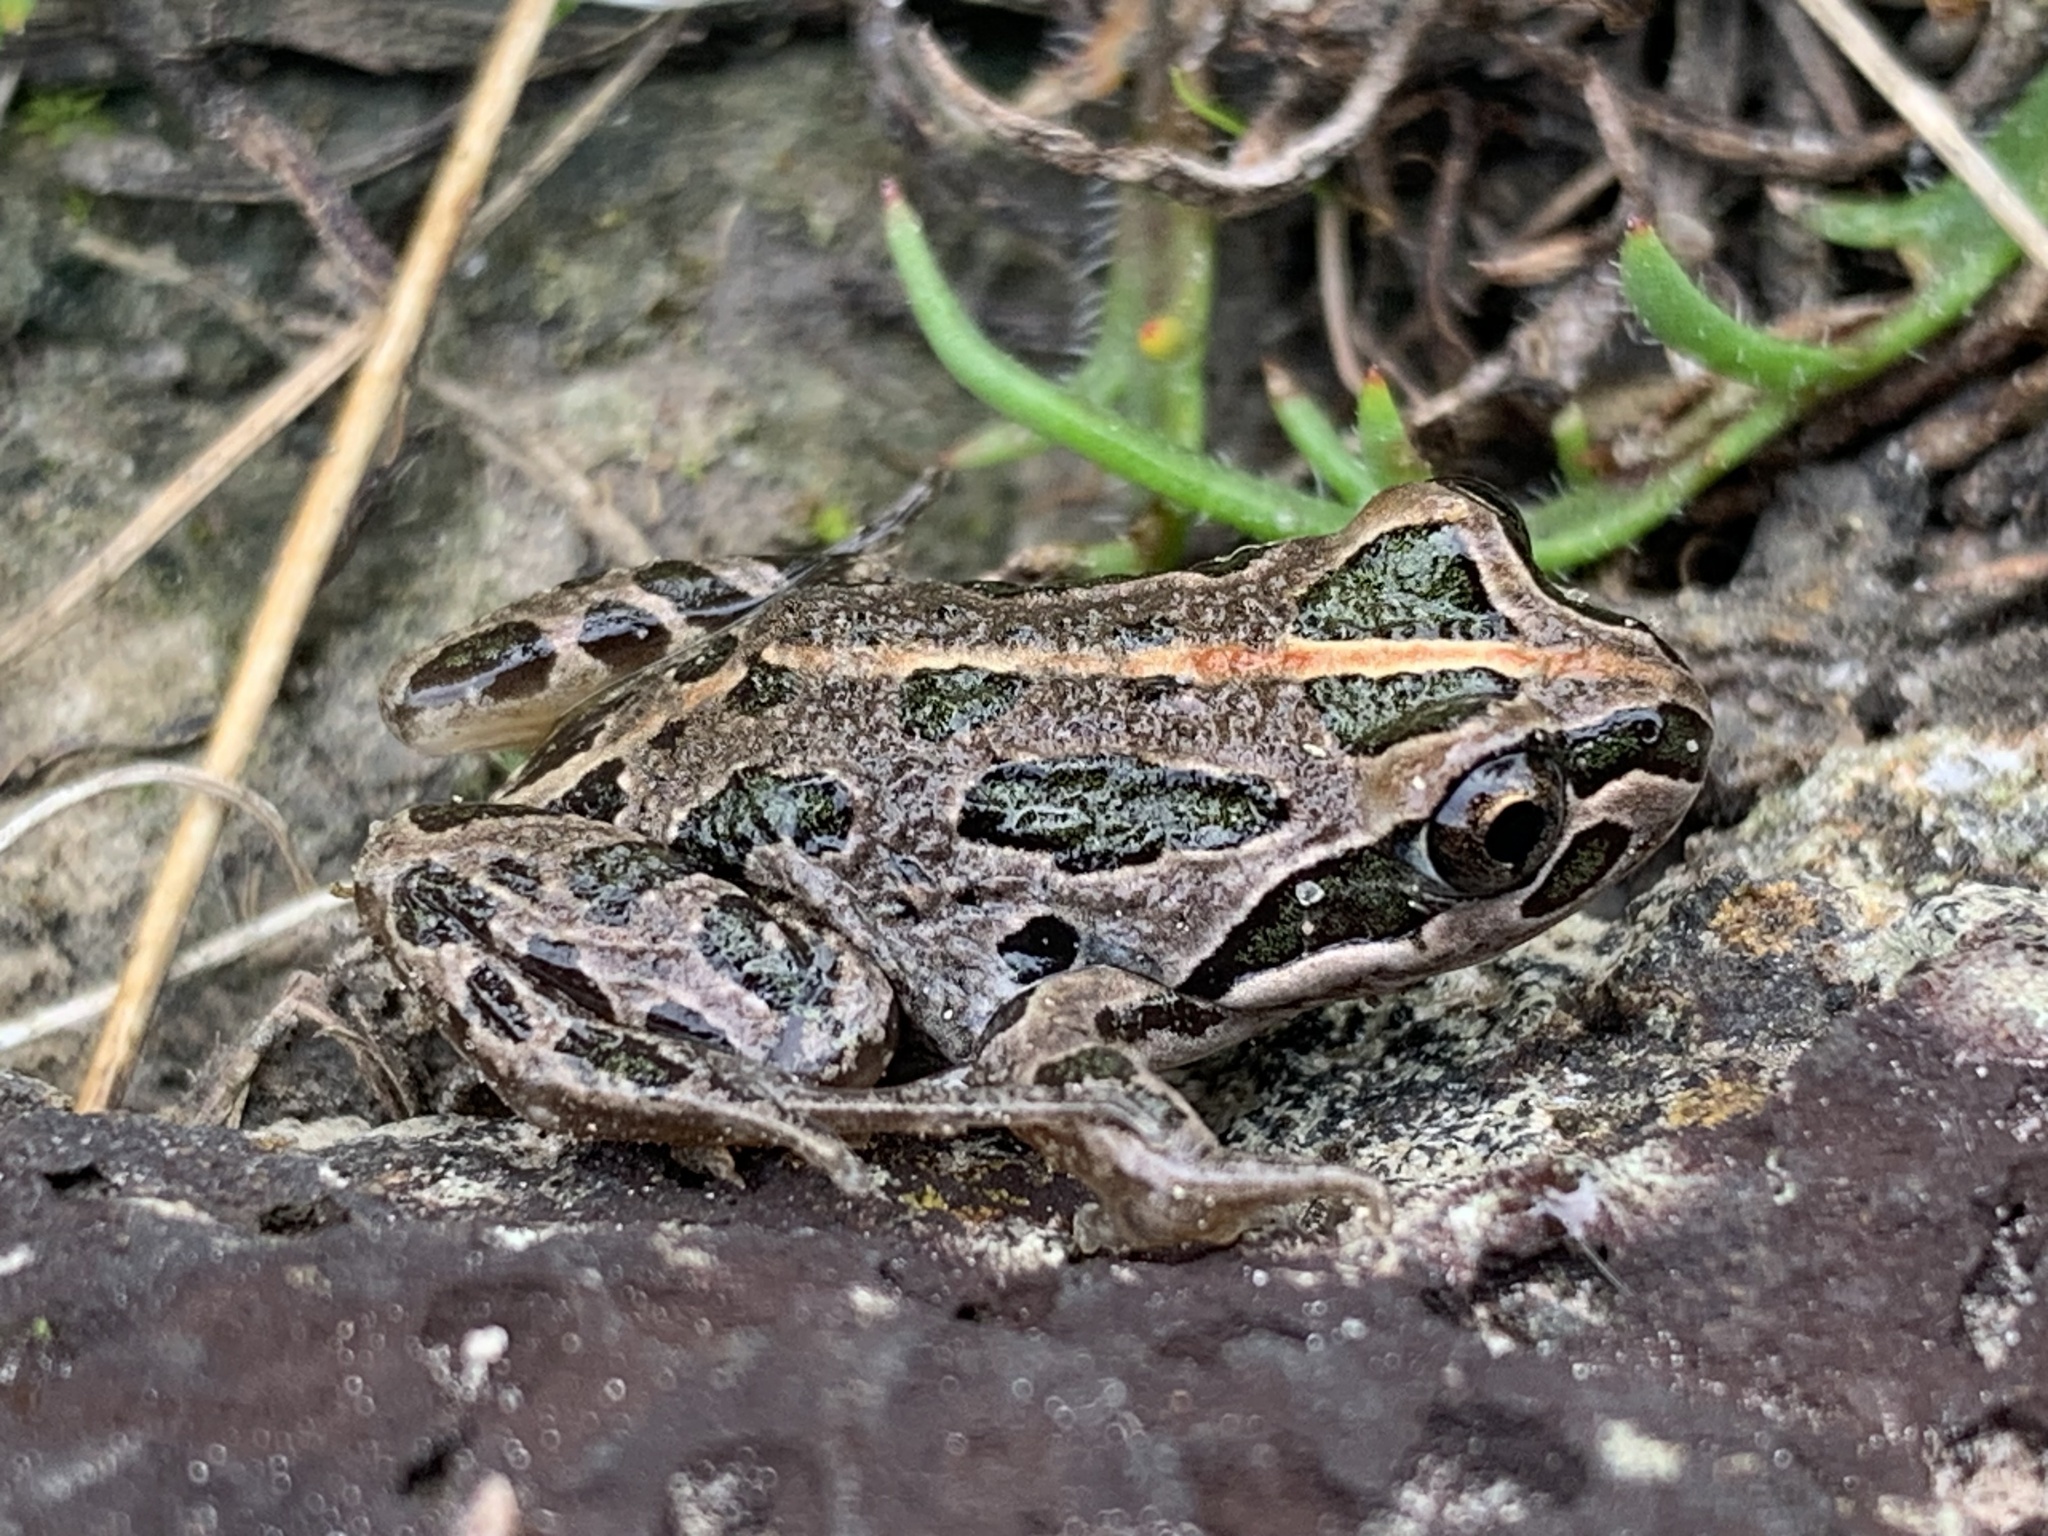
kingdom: Animalia
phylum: Chordata
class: Amphibia
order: Anura
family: Limnodynastidae
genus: Limnodynastes
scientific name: Limnodynastes tasmaniensis
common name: Spotted marsh frog
